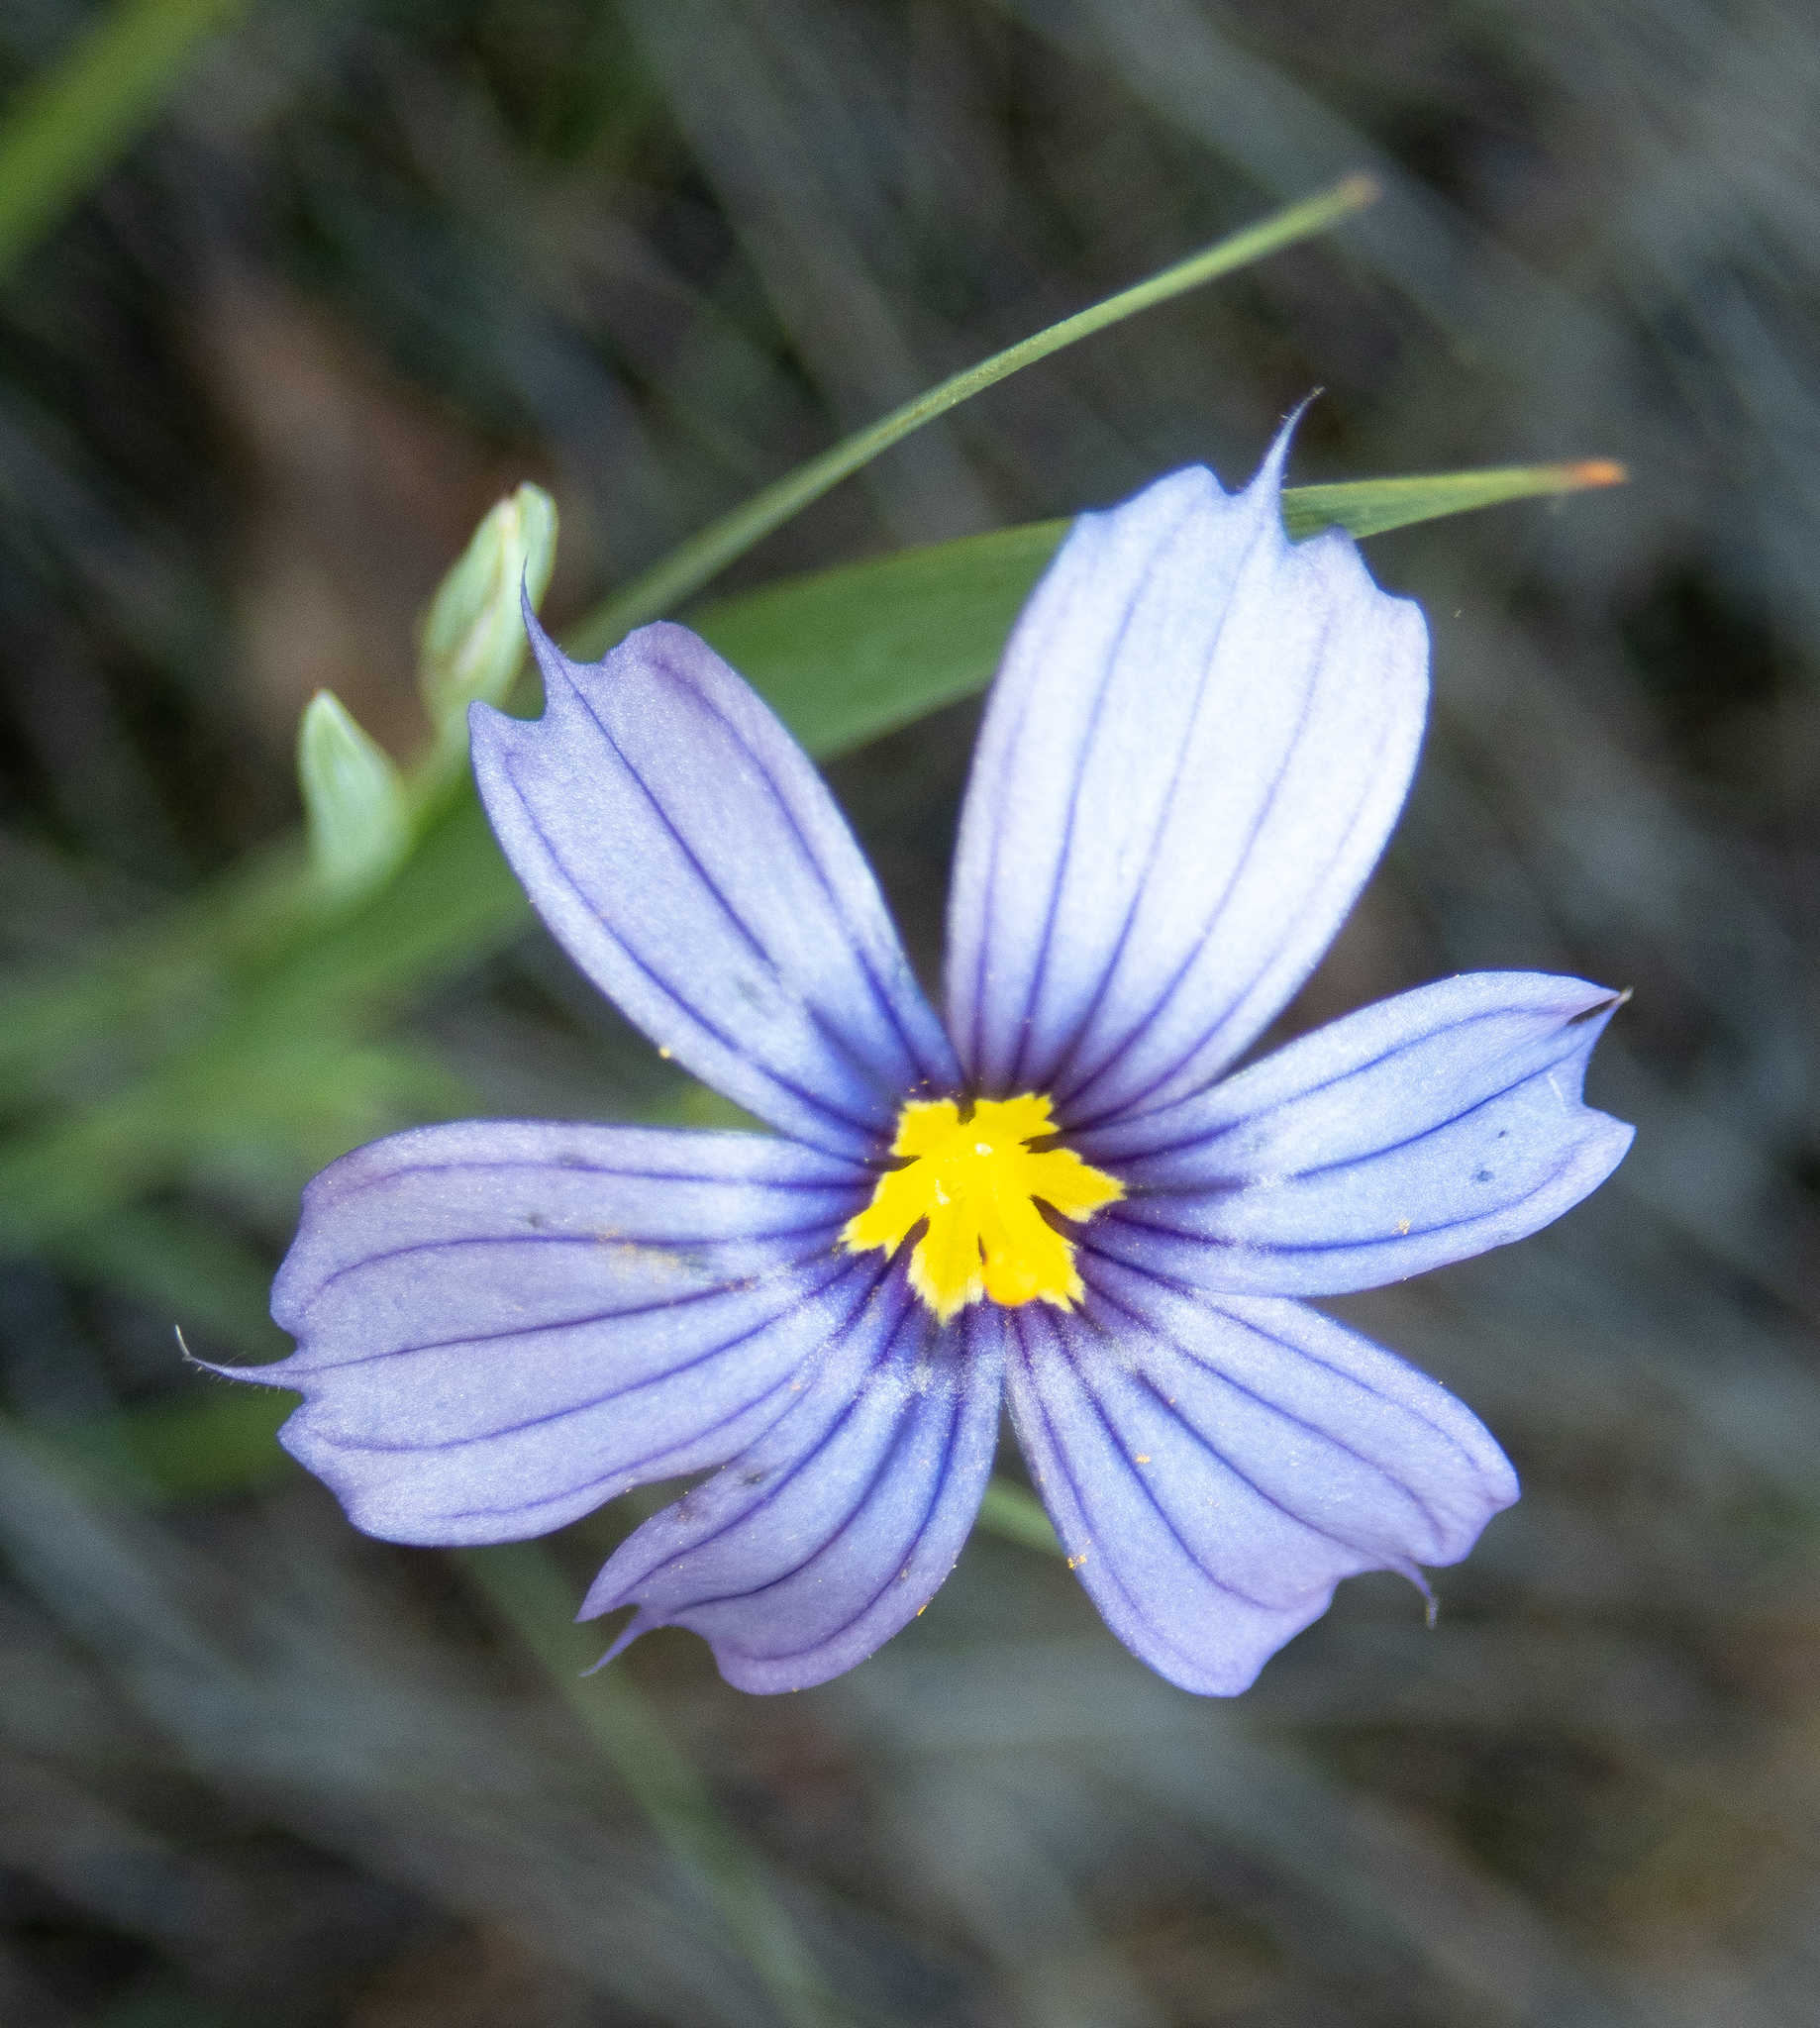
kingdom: Plantae
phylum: Tracheophyta
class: Liliopsida
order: Asparagales
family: Iridaceae
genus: Sisyrinchium
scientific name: Sisyrinchium bellum
